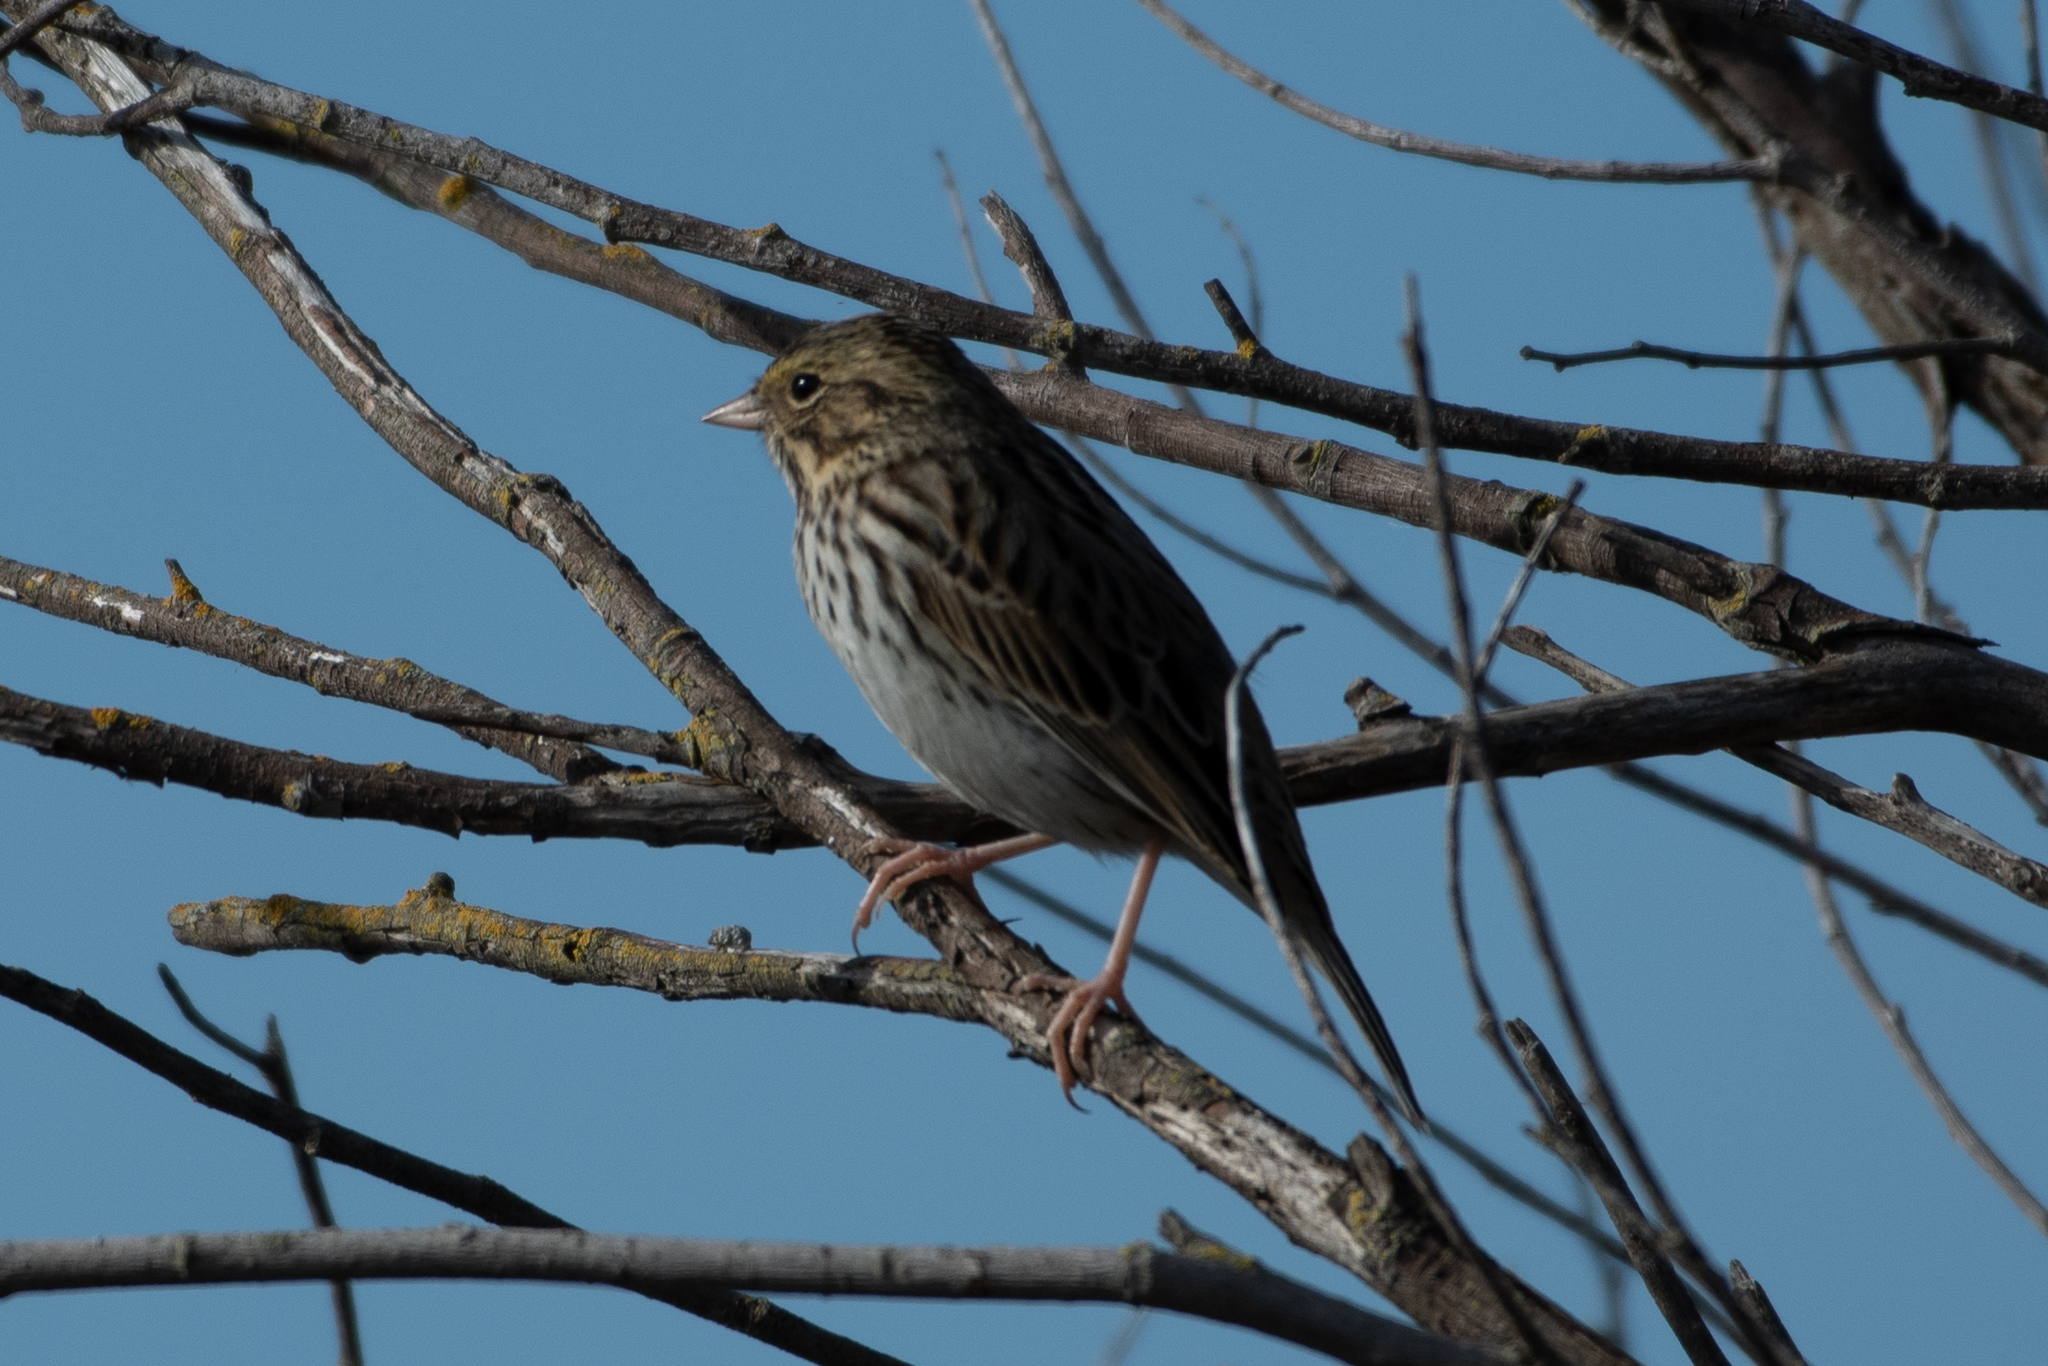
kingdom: Animalia
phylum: Chordata
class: Aves
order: Passeriformes
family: Passerellidae
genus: Passerculus
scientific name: Passerculus sandwichensis
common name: Savannah sparrow
